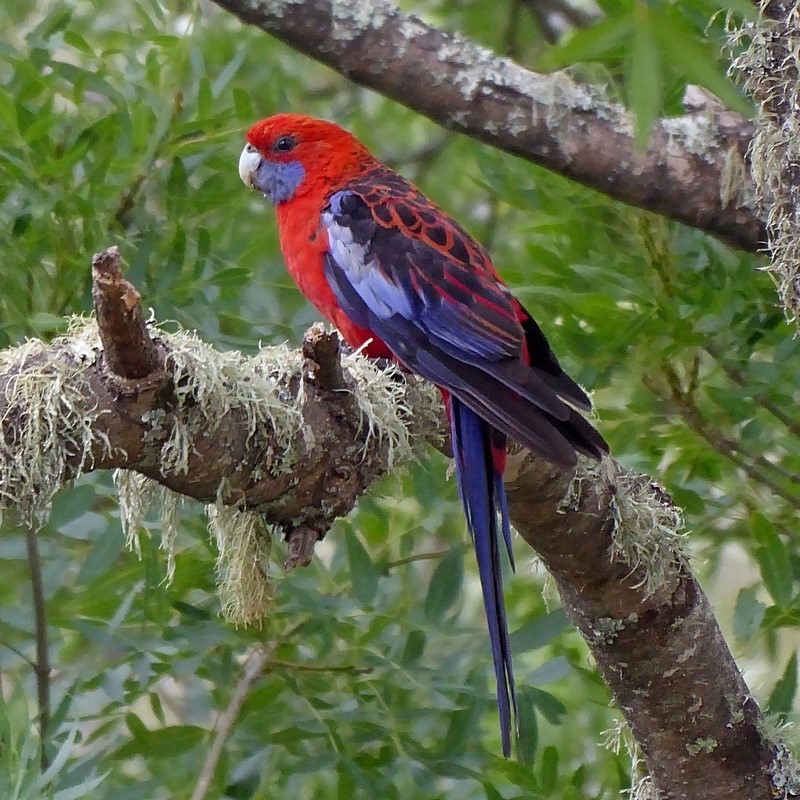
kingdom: Animalia
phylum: Chordata
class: Aves
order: Psittaciformes
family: Psittacidae
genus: Platycercus
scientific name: Platycercus elegans
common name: Crimson rosella
